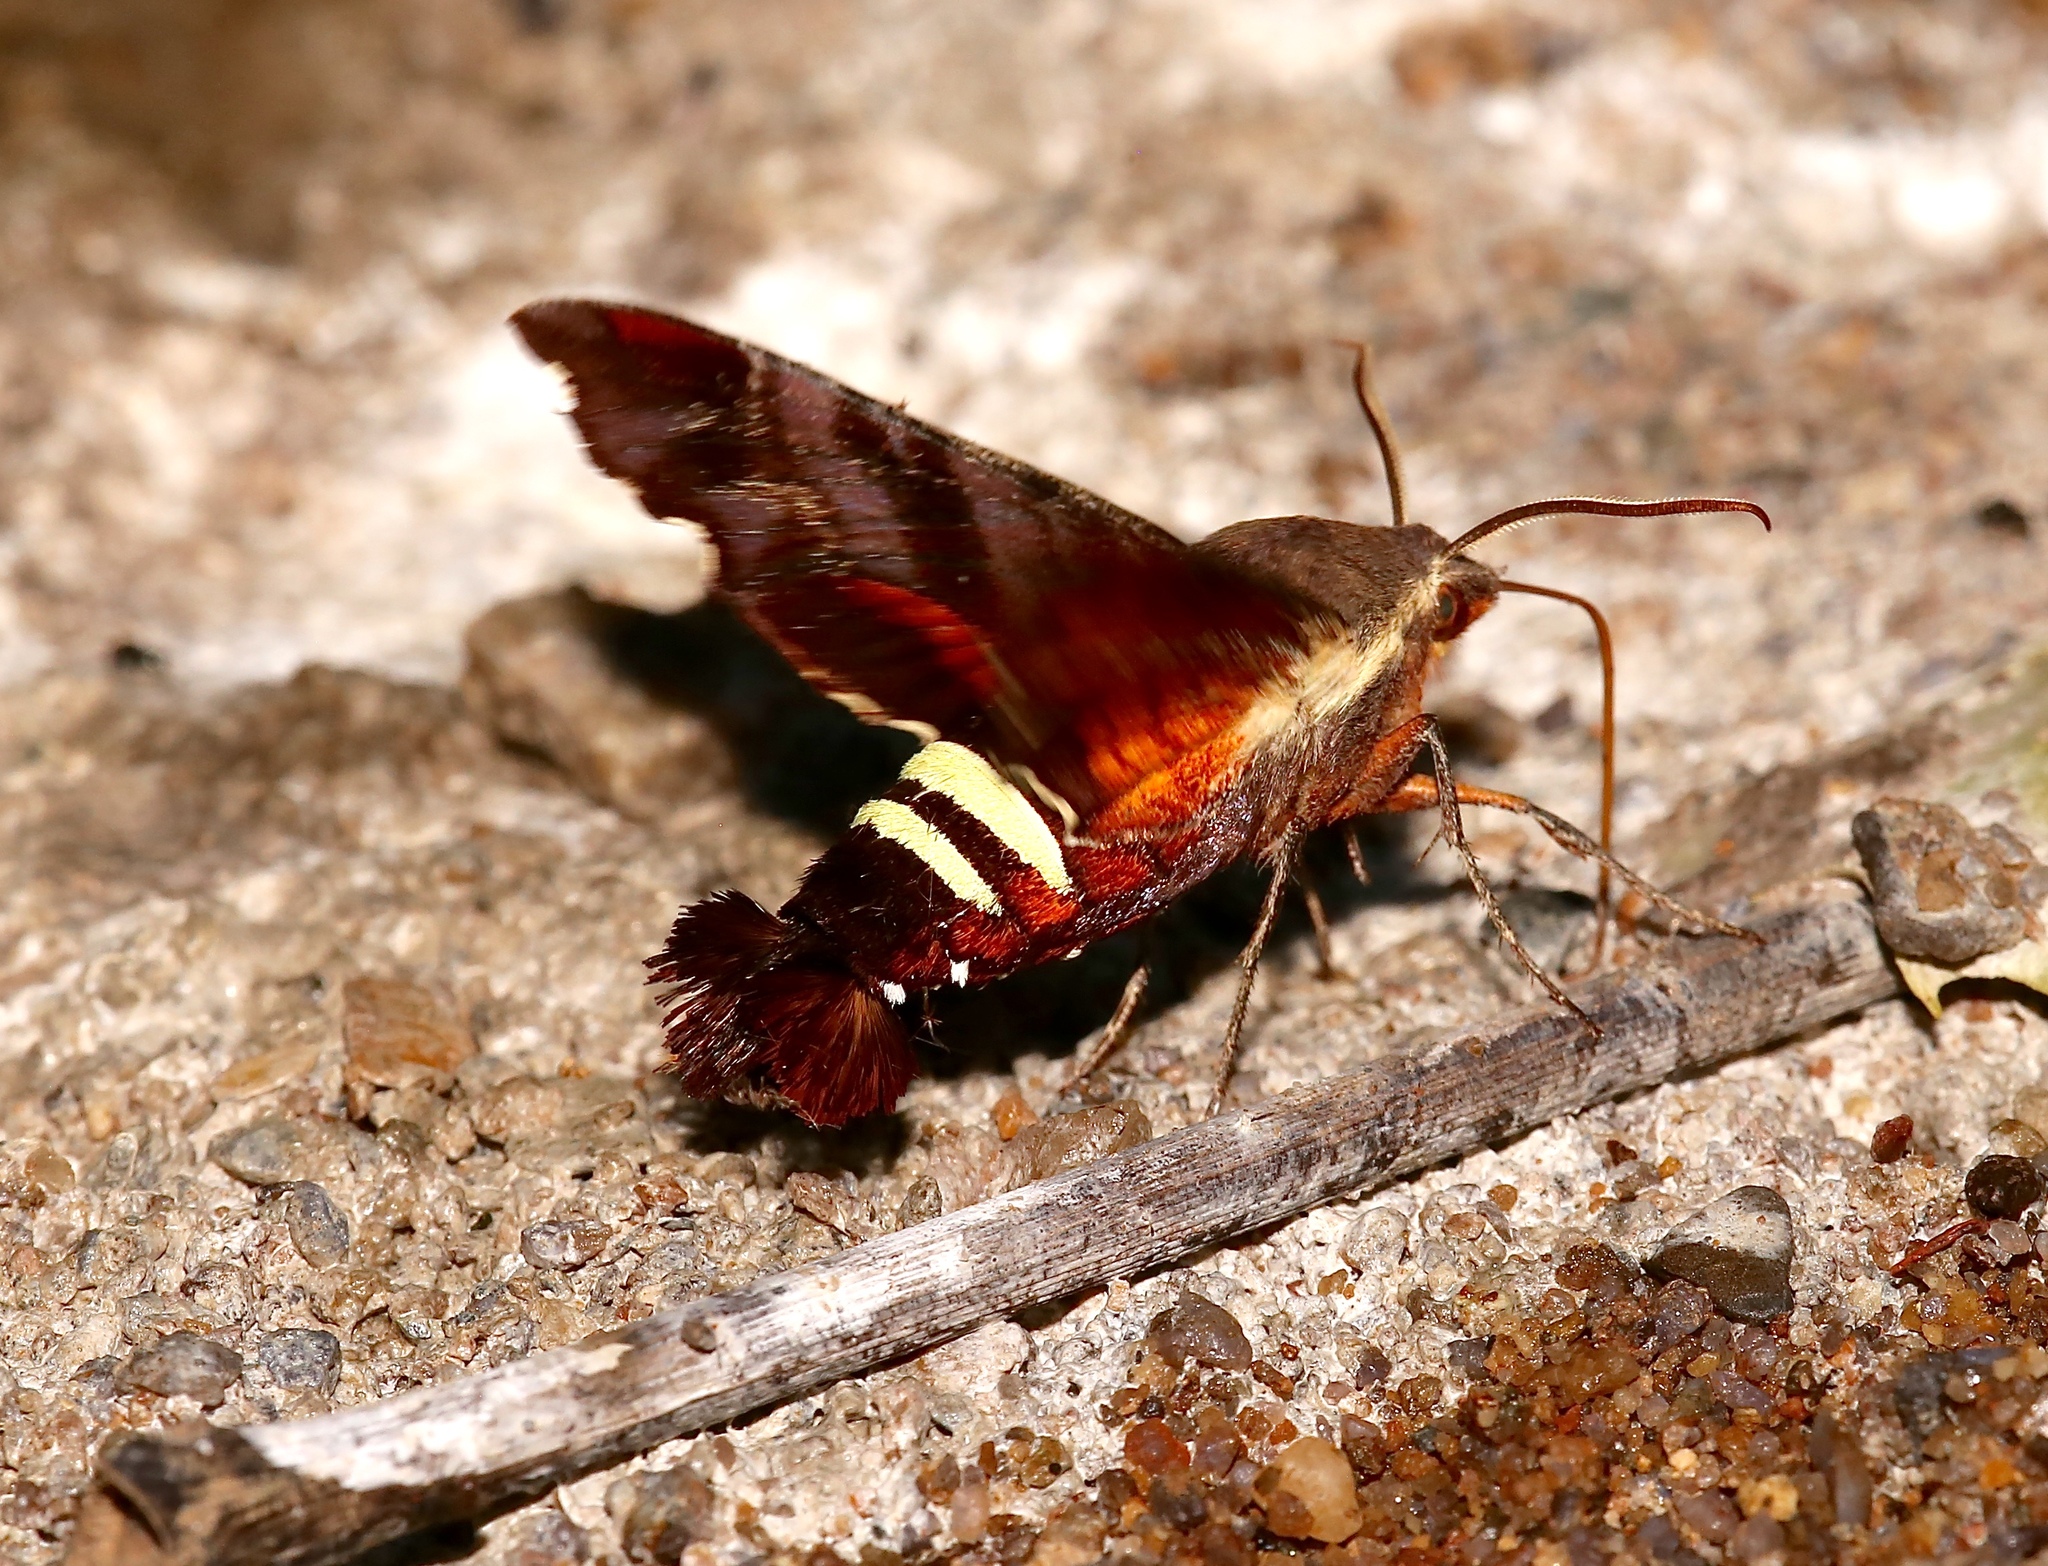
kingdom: Animalia
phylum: Arthropoda
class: Insecta
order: Lepidoptera
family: Sphingidae
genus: Amphion
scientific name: Amphion floridensis
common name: Nessus sphinx
